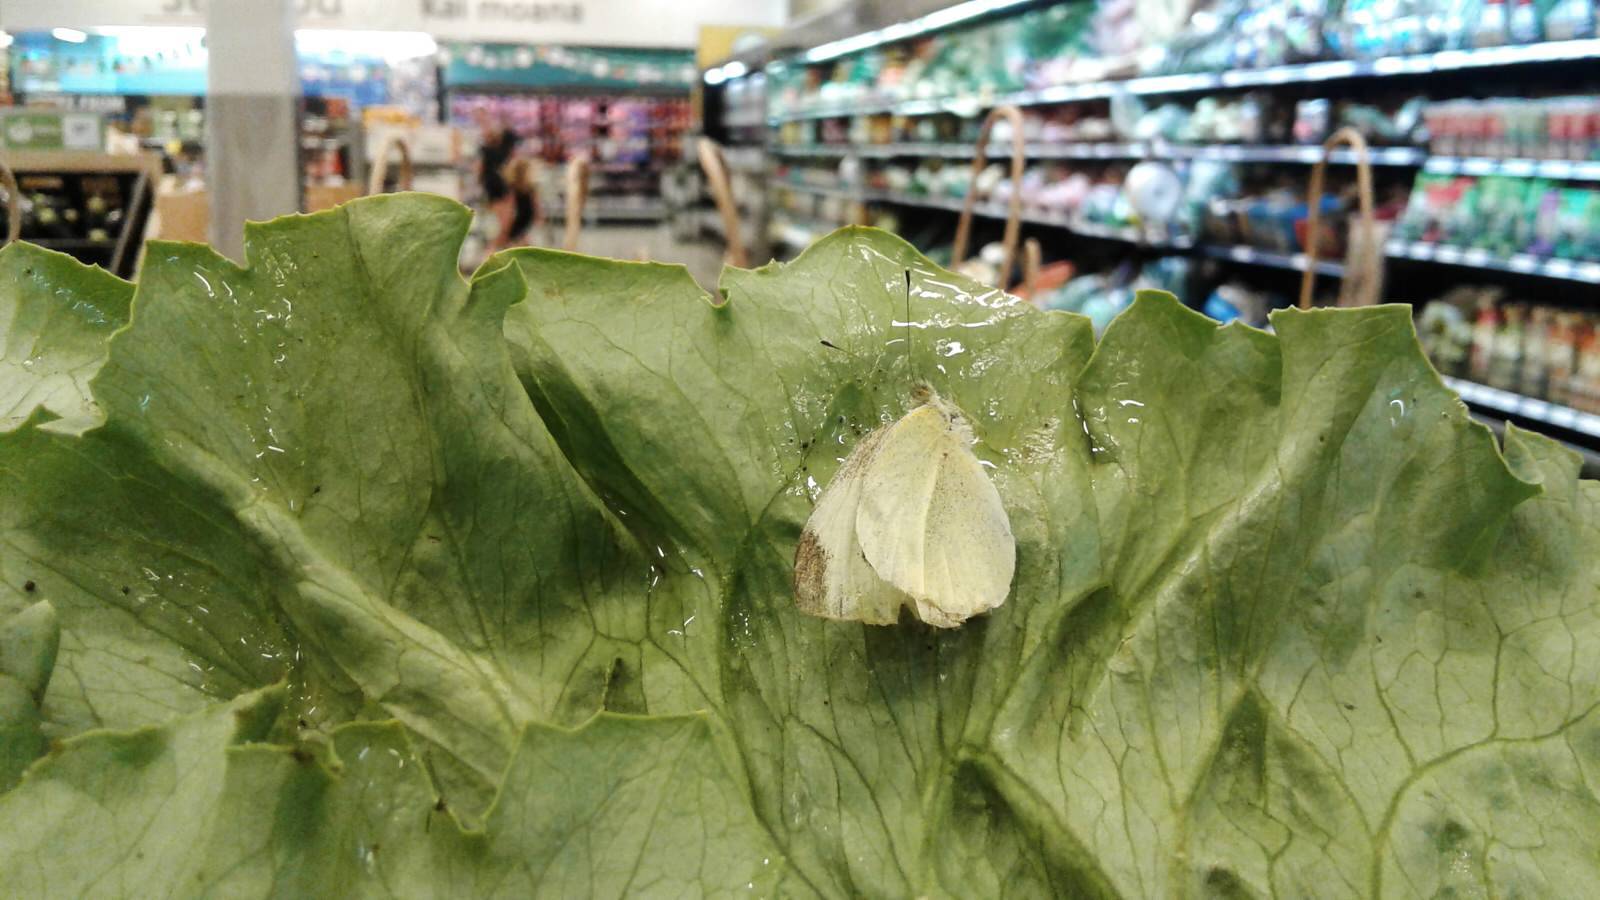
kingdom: Animalia
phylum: Arthropoda
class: Insecta
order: Lepidoptera
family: Pieridae
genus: Pieris
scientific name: Pieris rapae
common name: Small white
